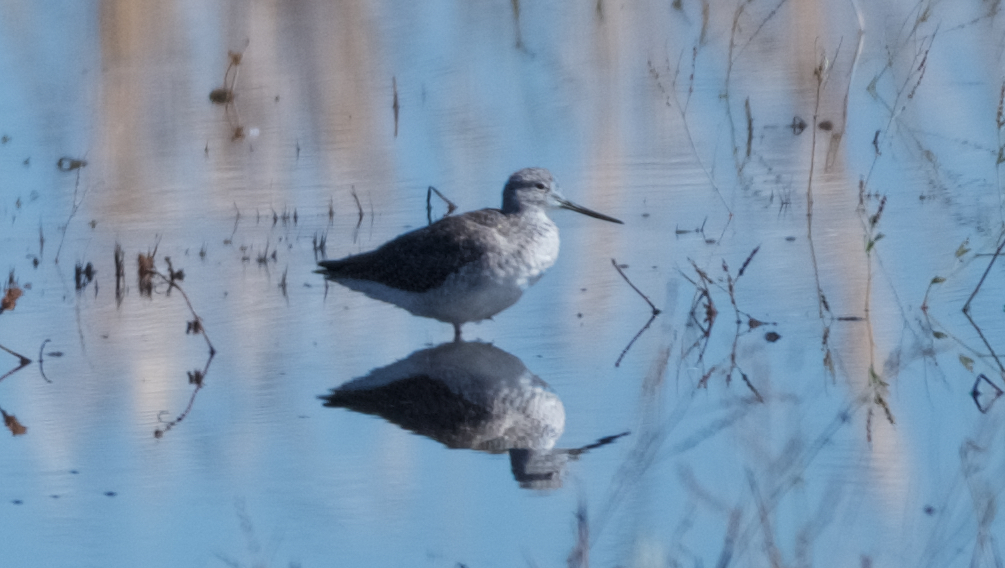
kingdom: Animalia
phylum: Chordata
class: Aves
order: Charadriiformes
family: Scolopacidae
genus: Tringa
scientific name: Tringa melanoleuca
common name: Greater yellowlegs
